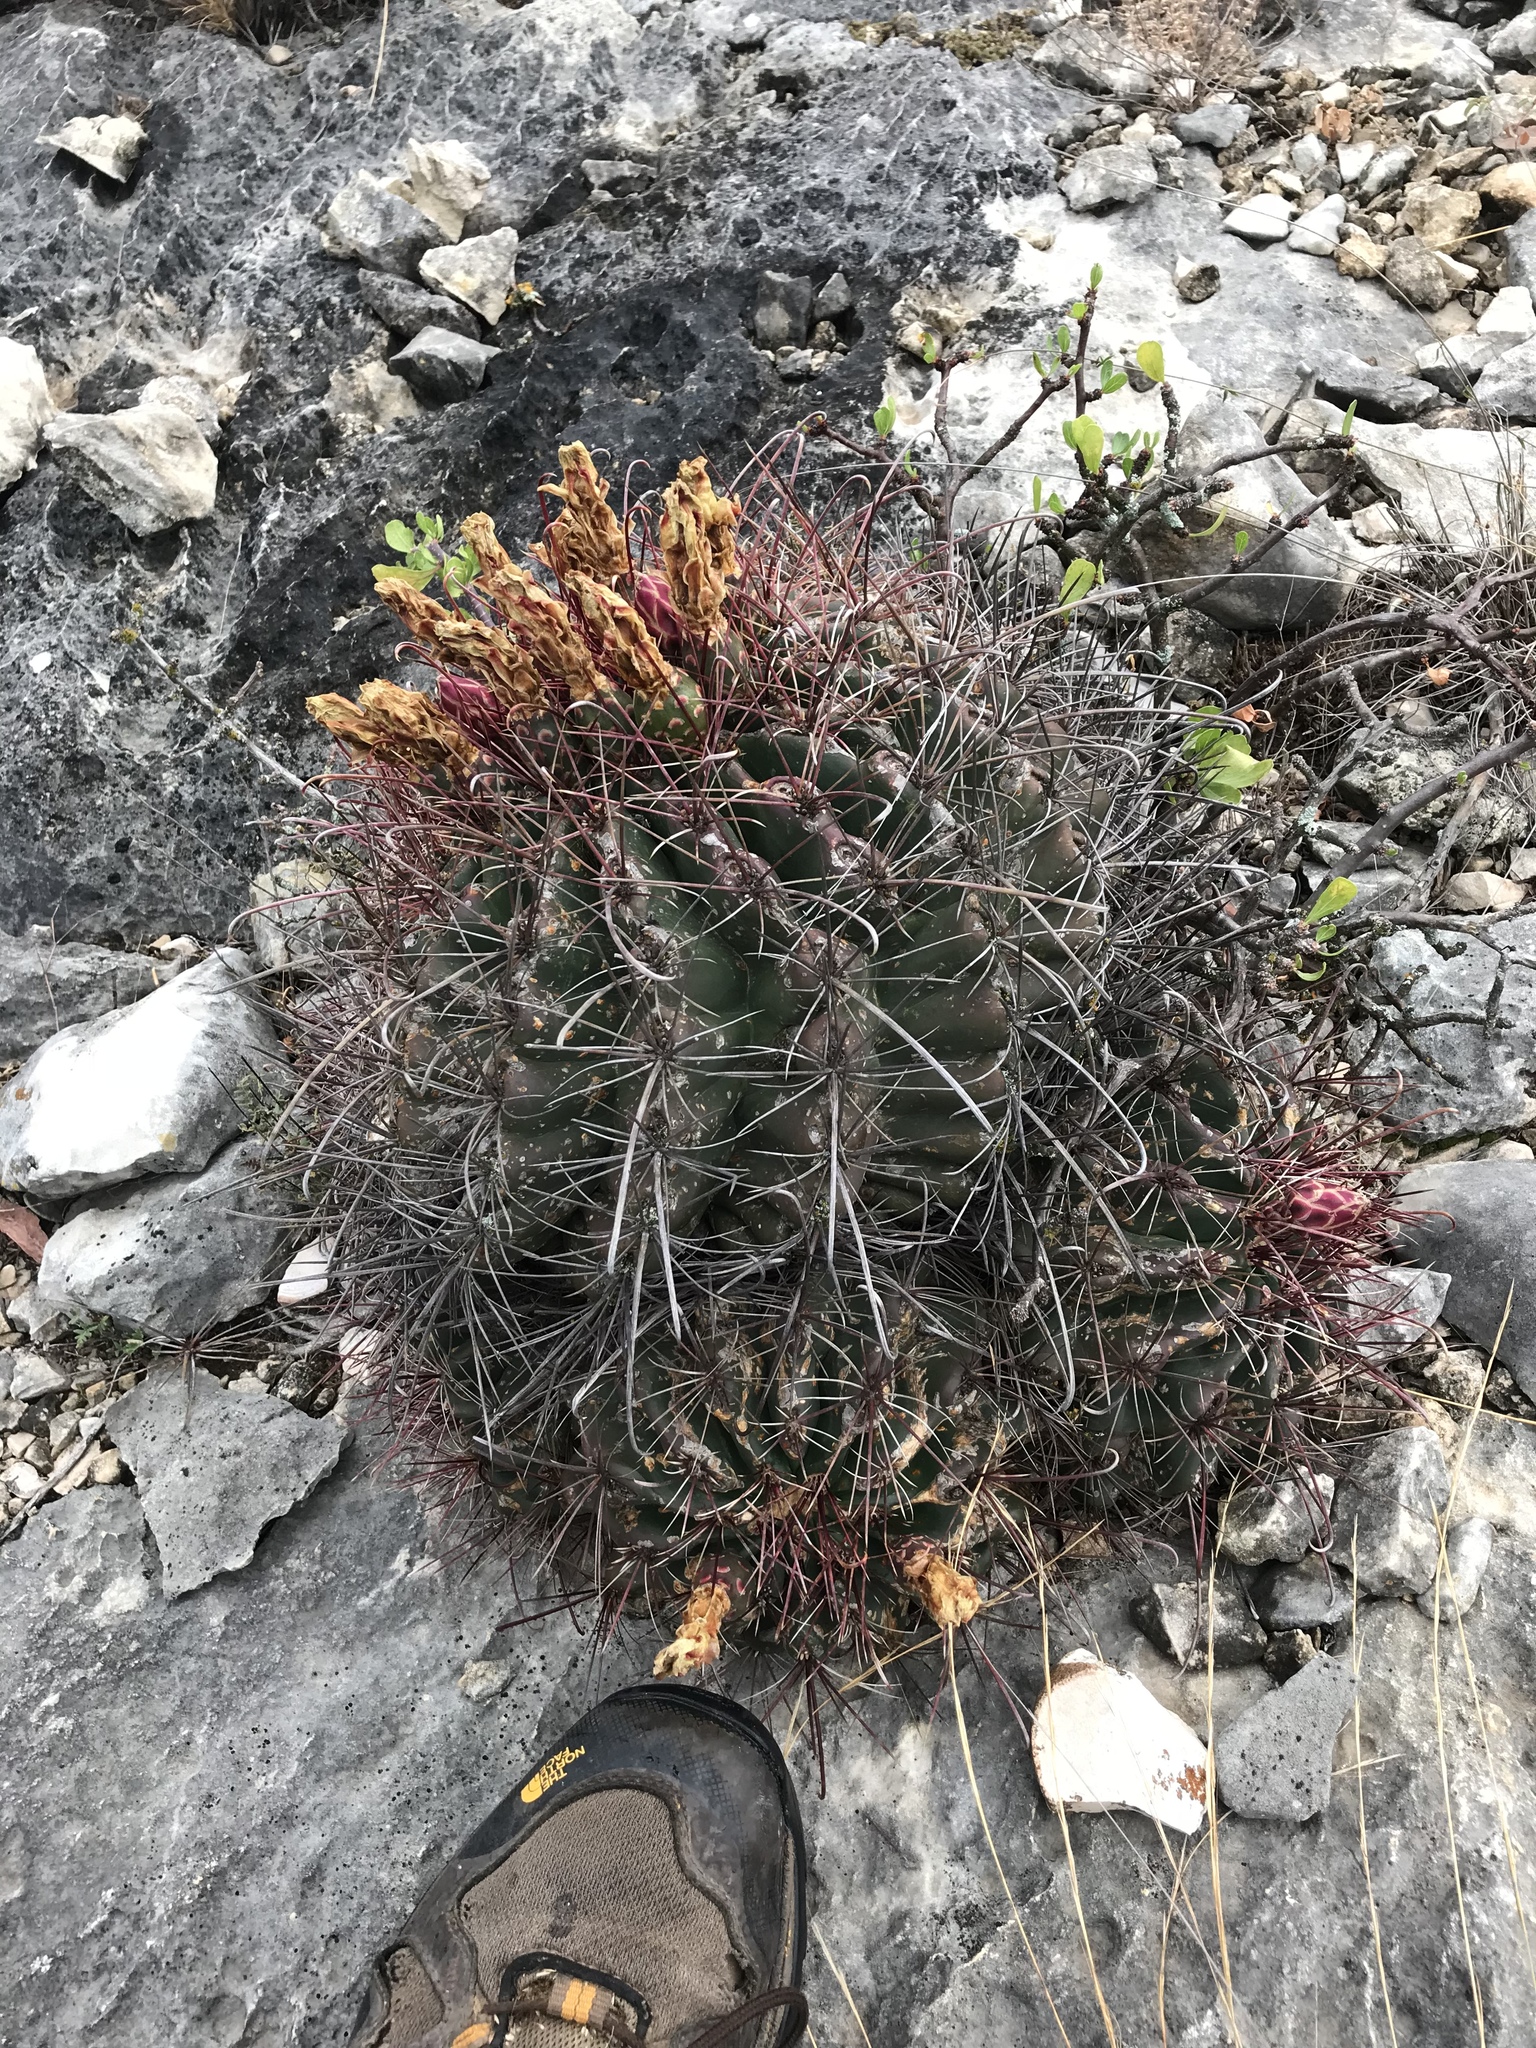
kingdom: Plantae
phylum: Tracheophyta
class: Magnoliopsida
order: Caryophyllales
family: Cactaceae
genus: Bisnaga
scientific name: Bisnaga hamatacantha
